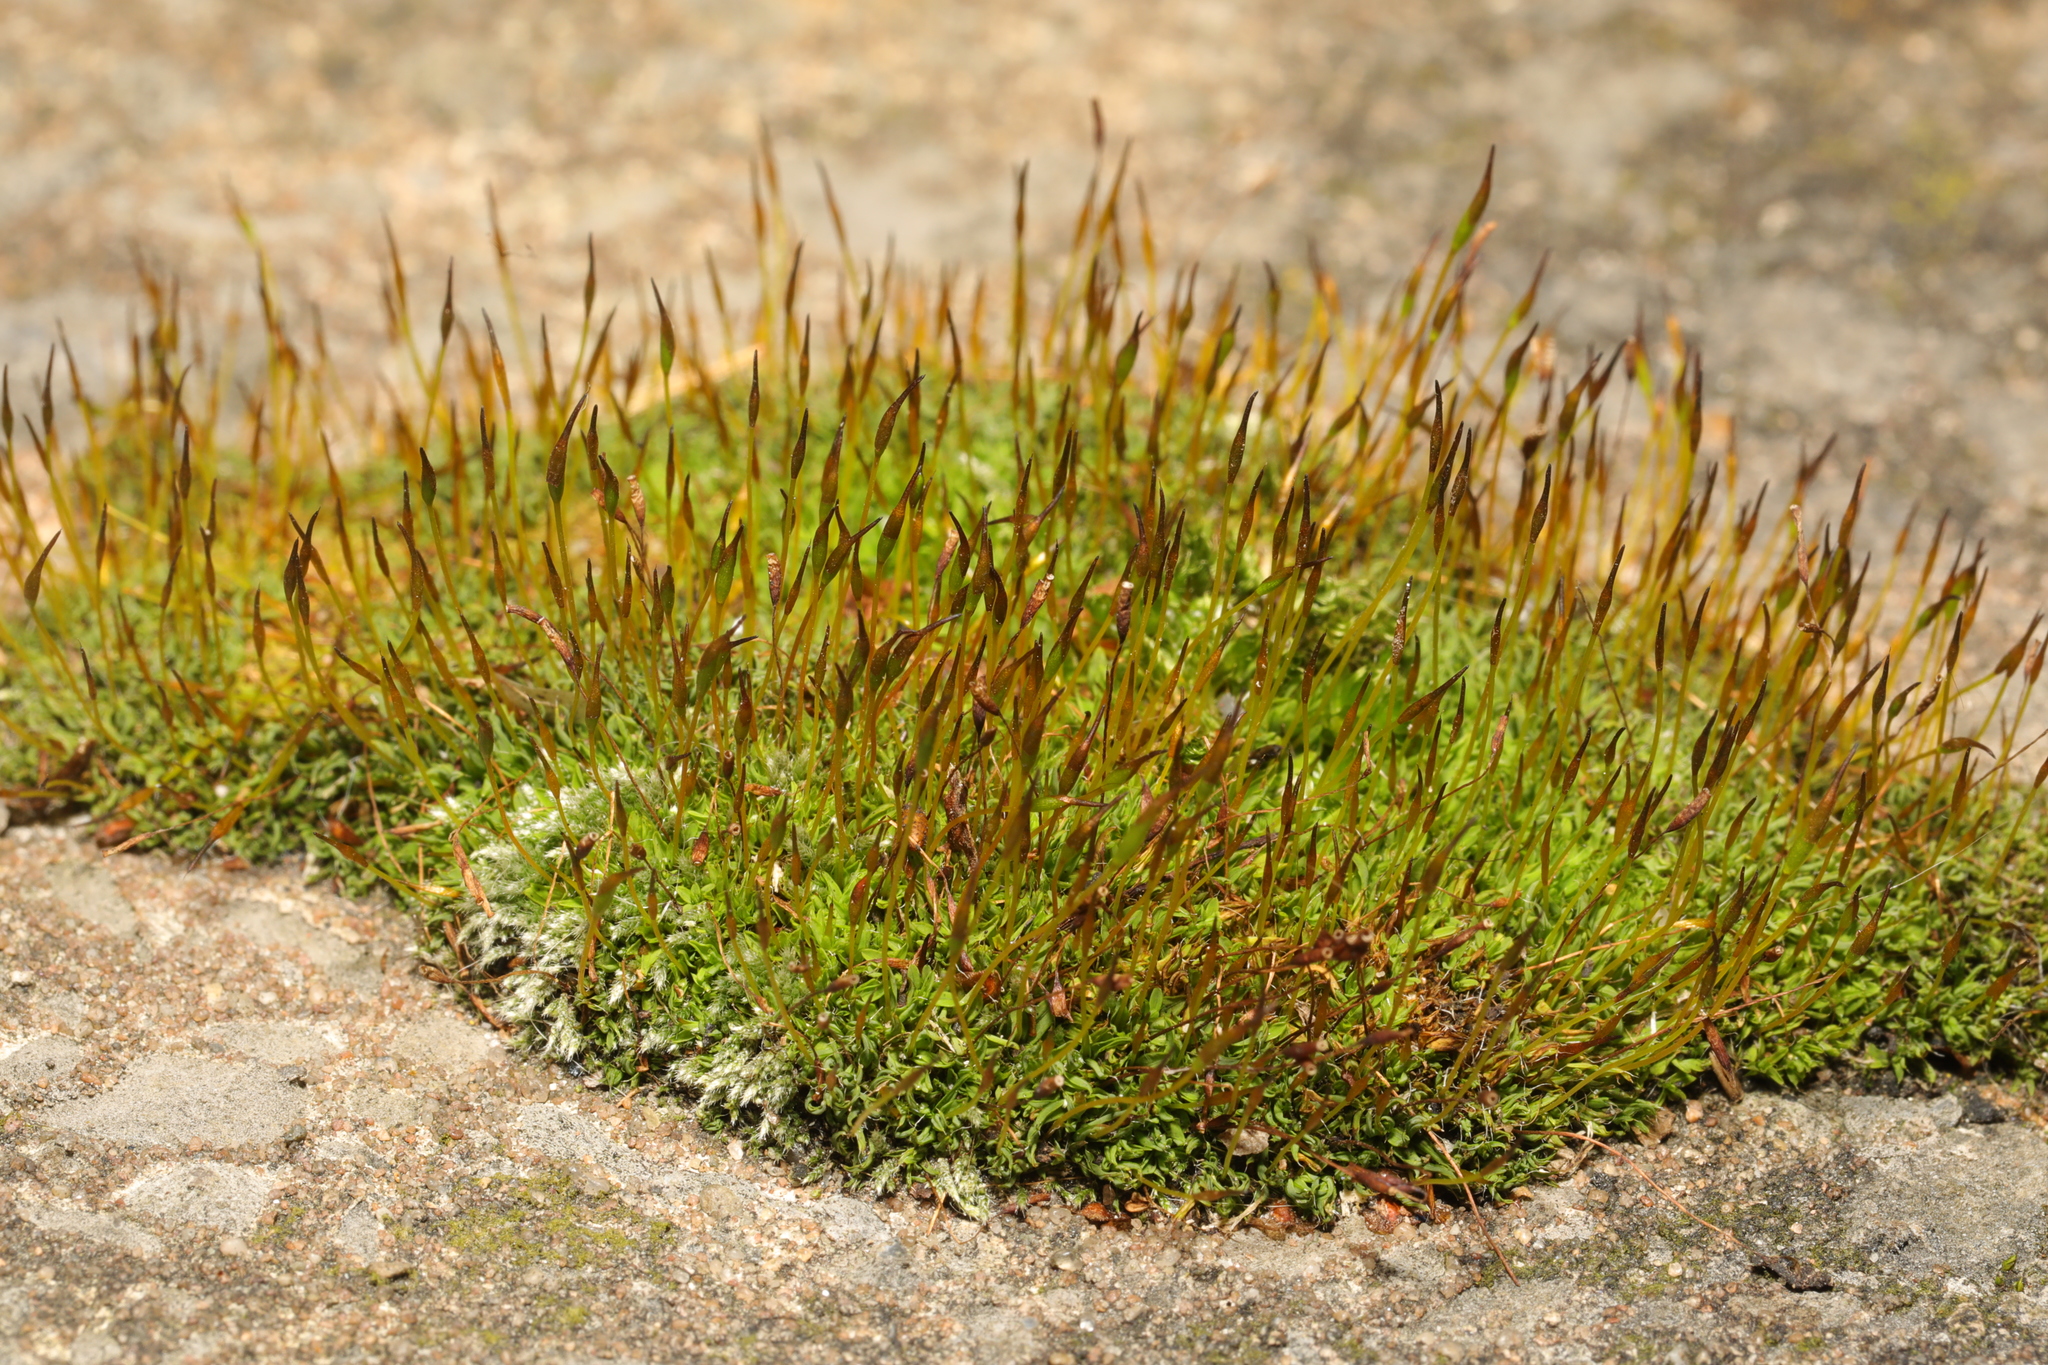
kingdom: Plantae
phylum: Bryophyta
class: Bryopsida
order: Pottiales
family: Pottiaceae
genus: Tortula
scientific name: Tortula muralis
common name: Wall screw-moss
